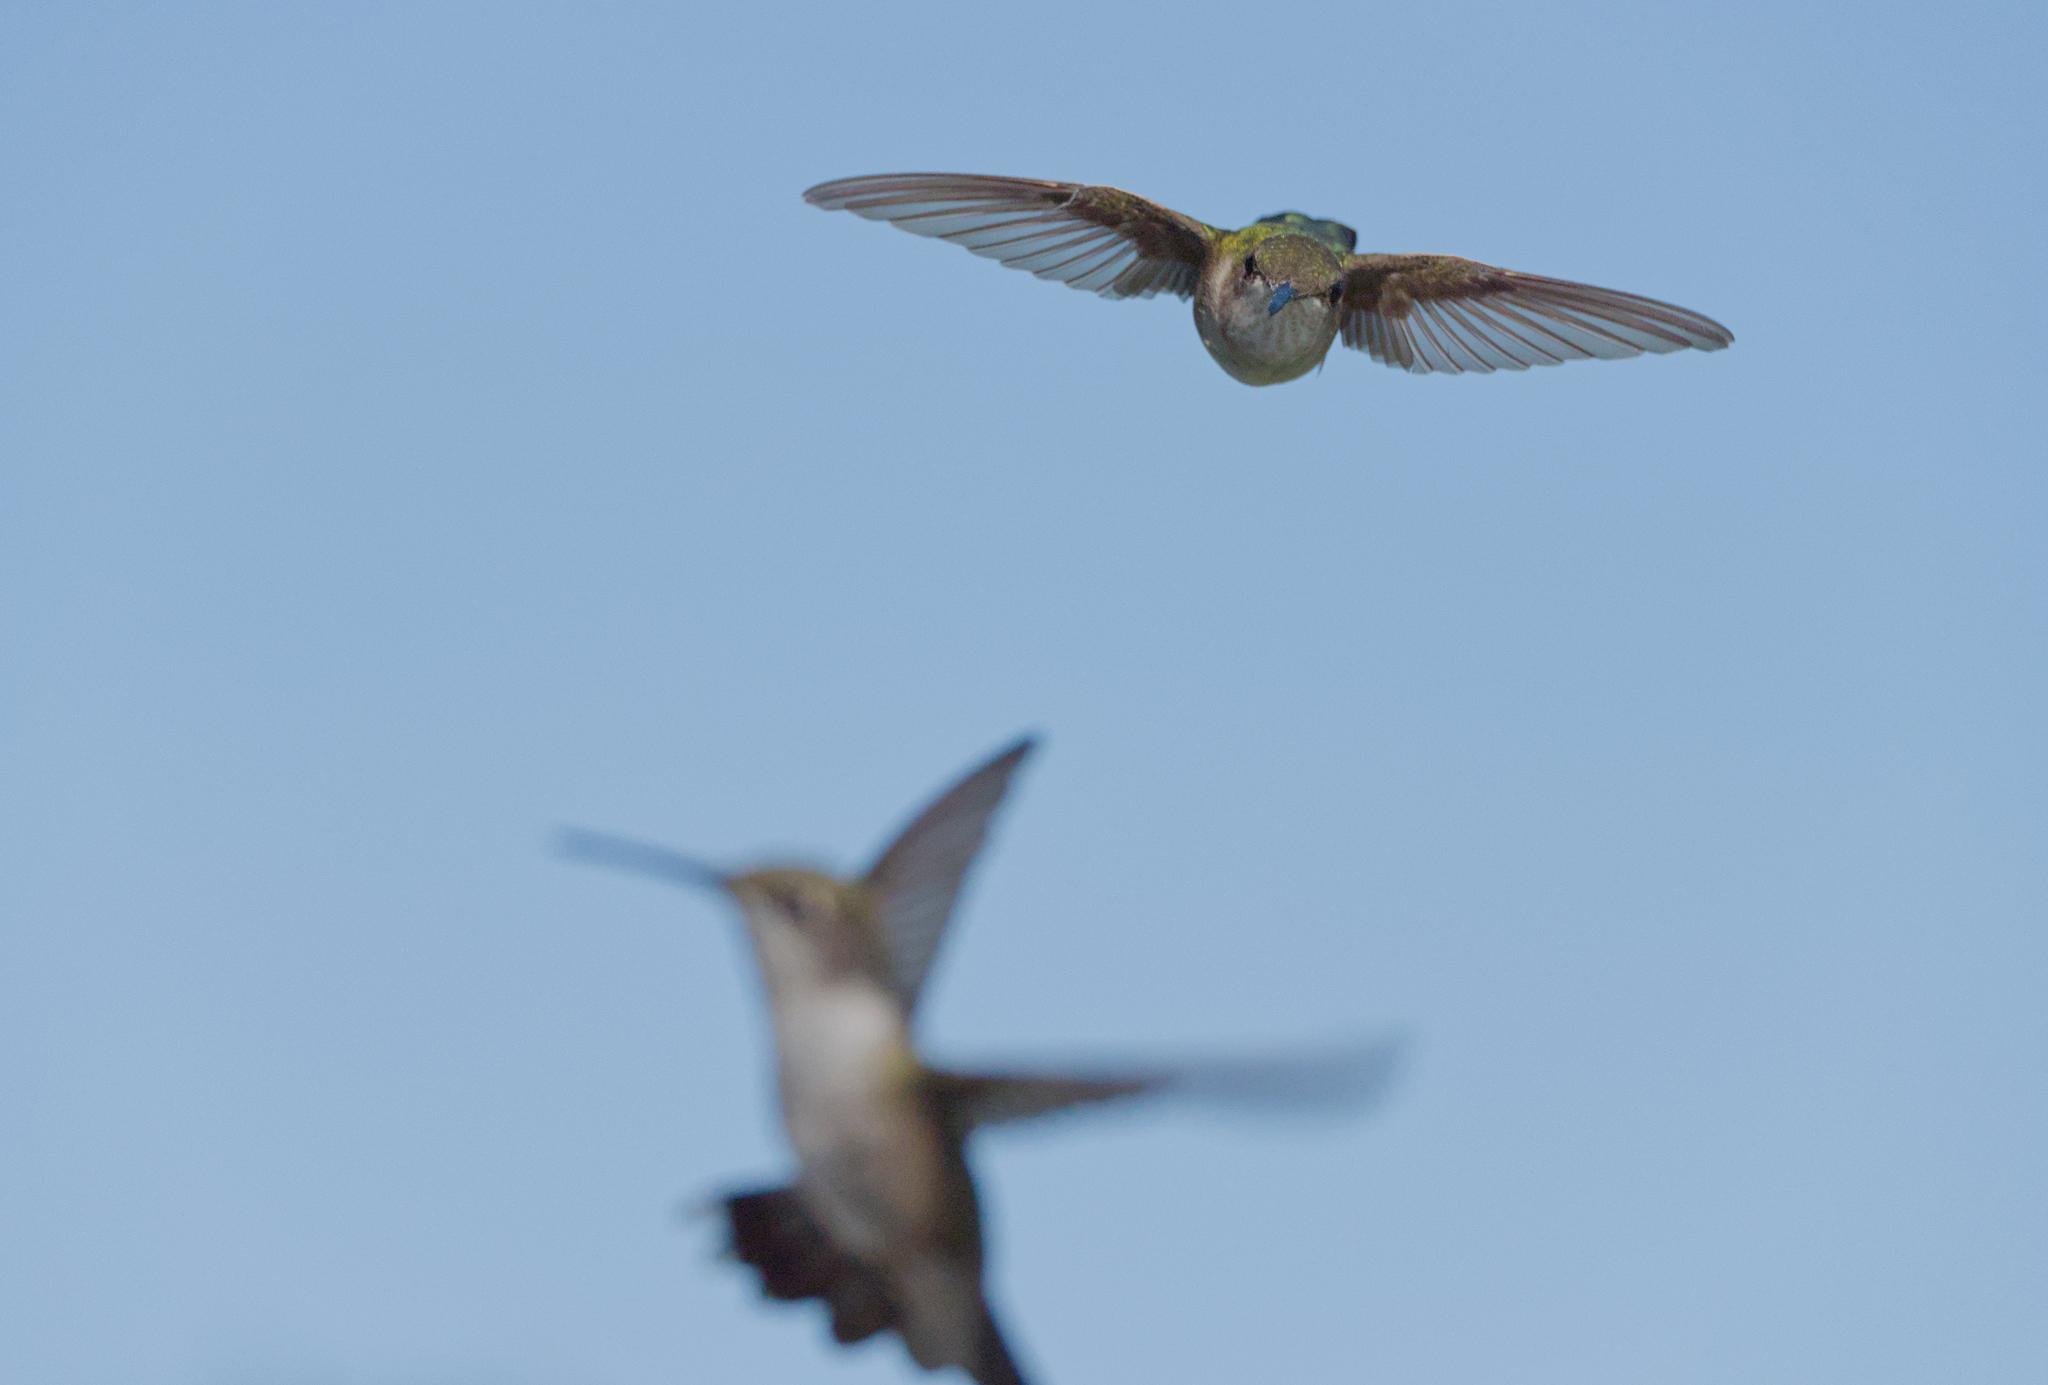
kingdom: Animalia
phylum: Chordata
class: Aves
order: Apodiformes
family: Trochilidae
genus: Archilochus
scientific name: Archilochus colubris
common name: Ruby-throated hummingbird
